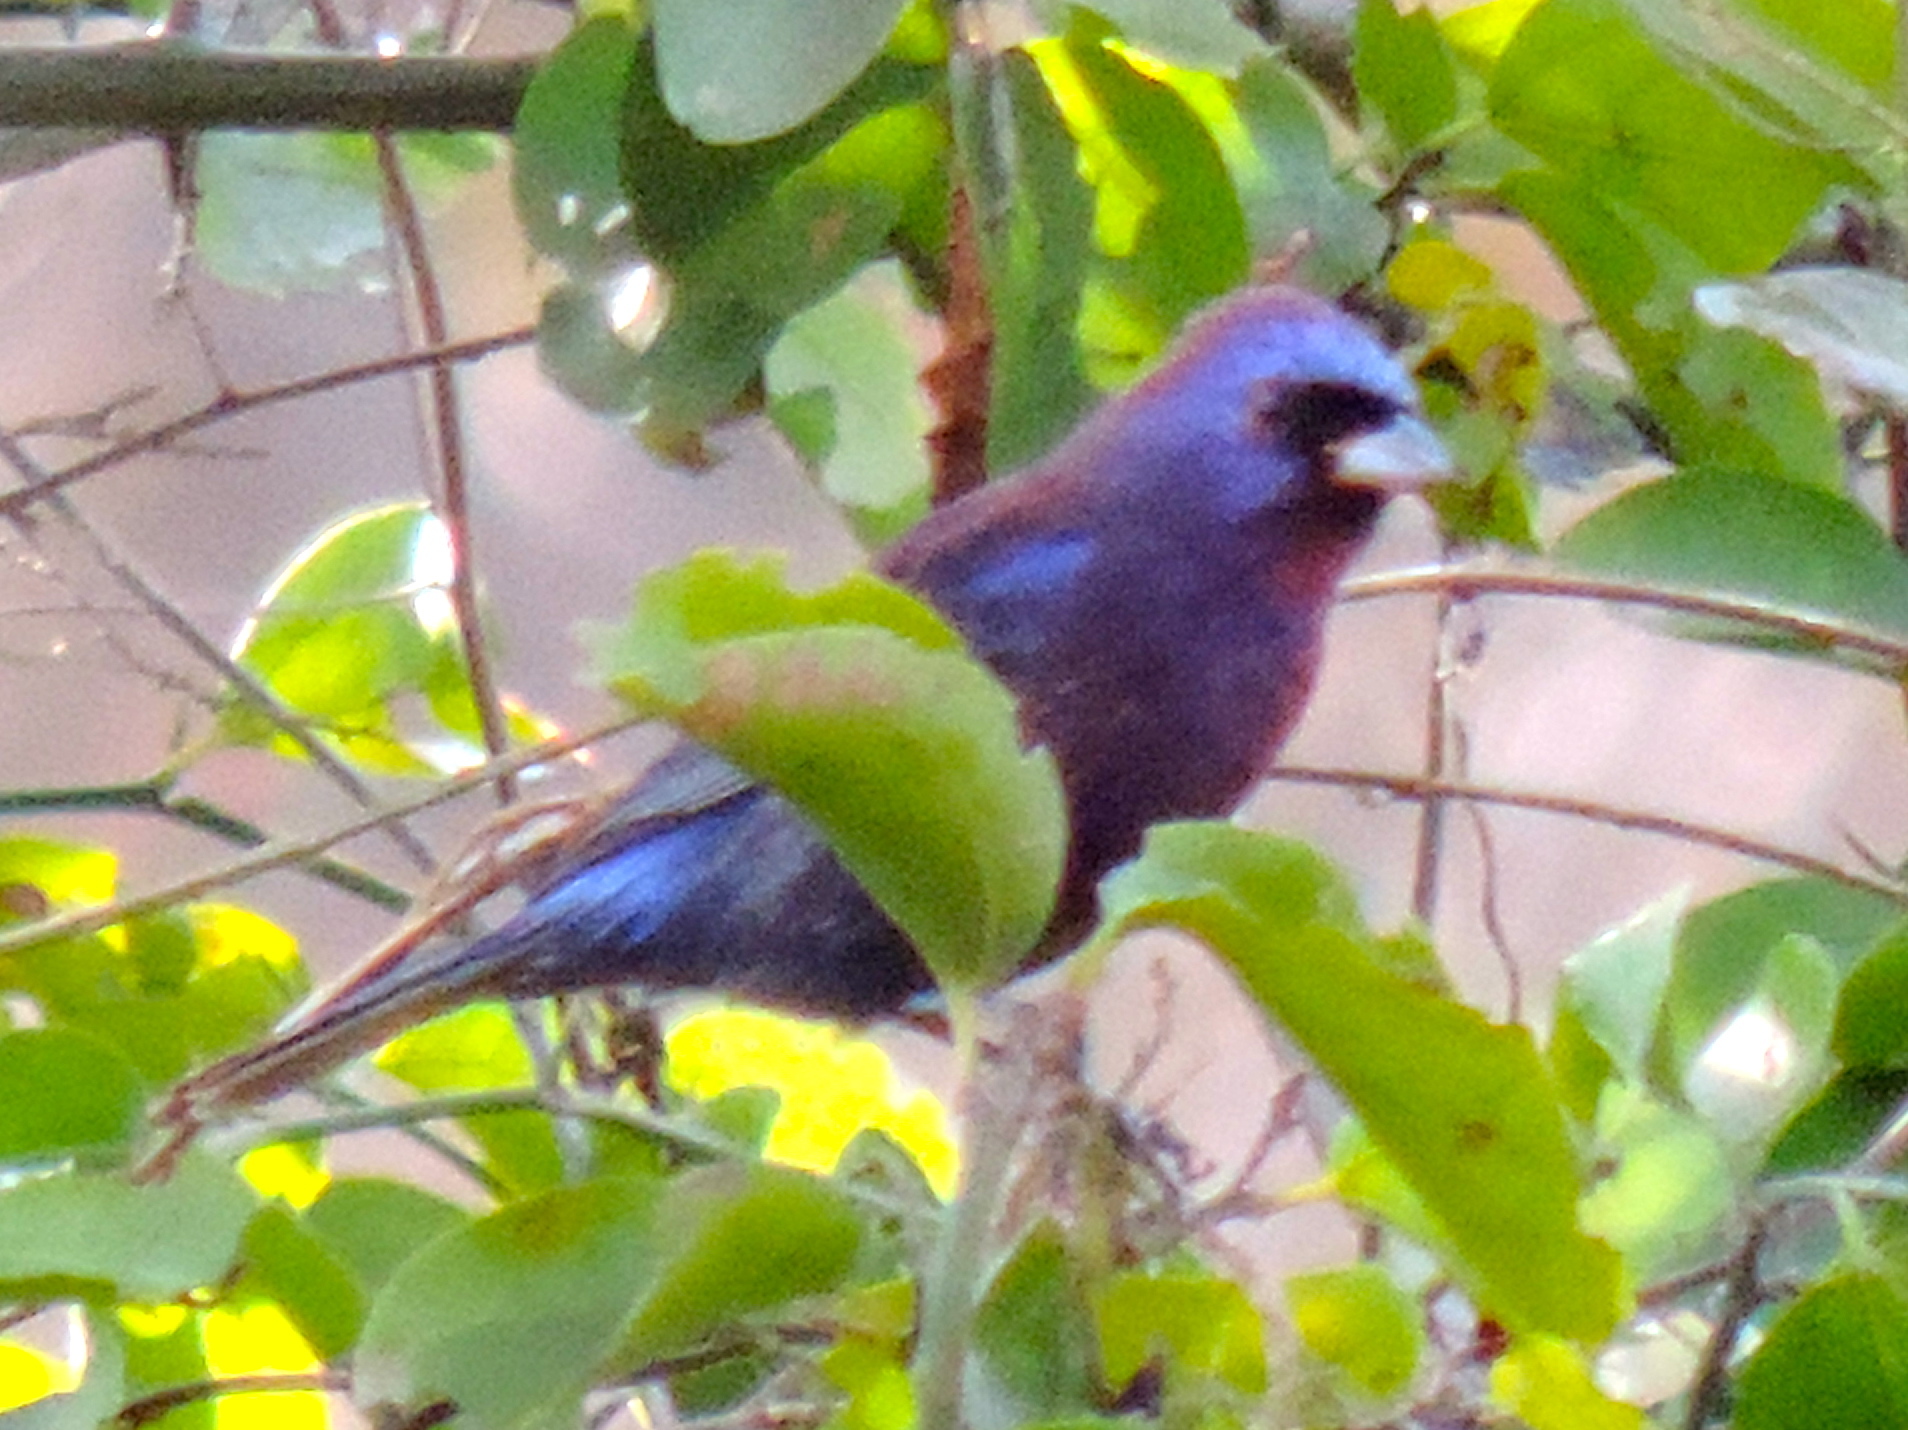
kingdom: Animalia
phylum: Chordata
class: Aves
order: Passeriformes
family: Cardinalidae
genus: Passerina
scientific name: Passerina versicolor
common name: Varied bunting
